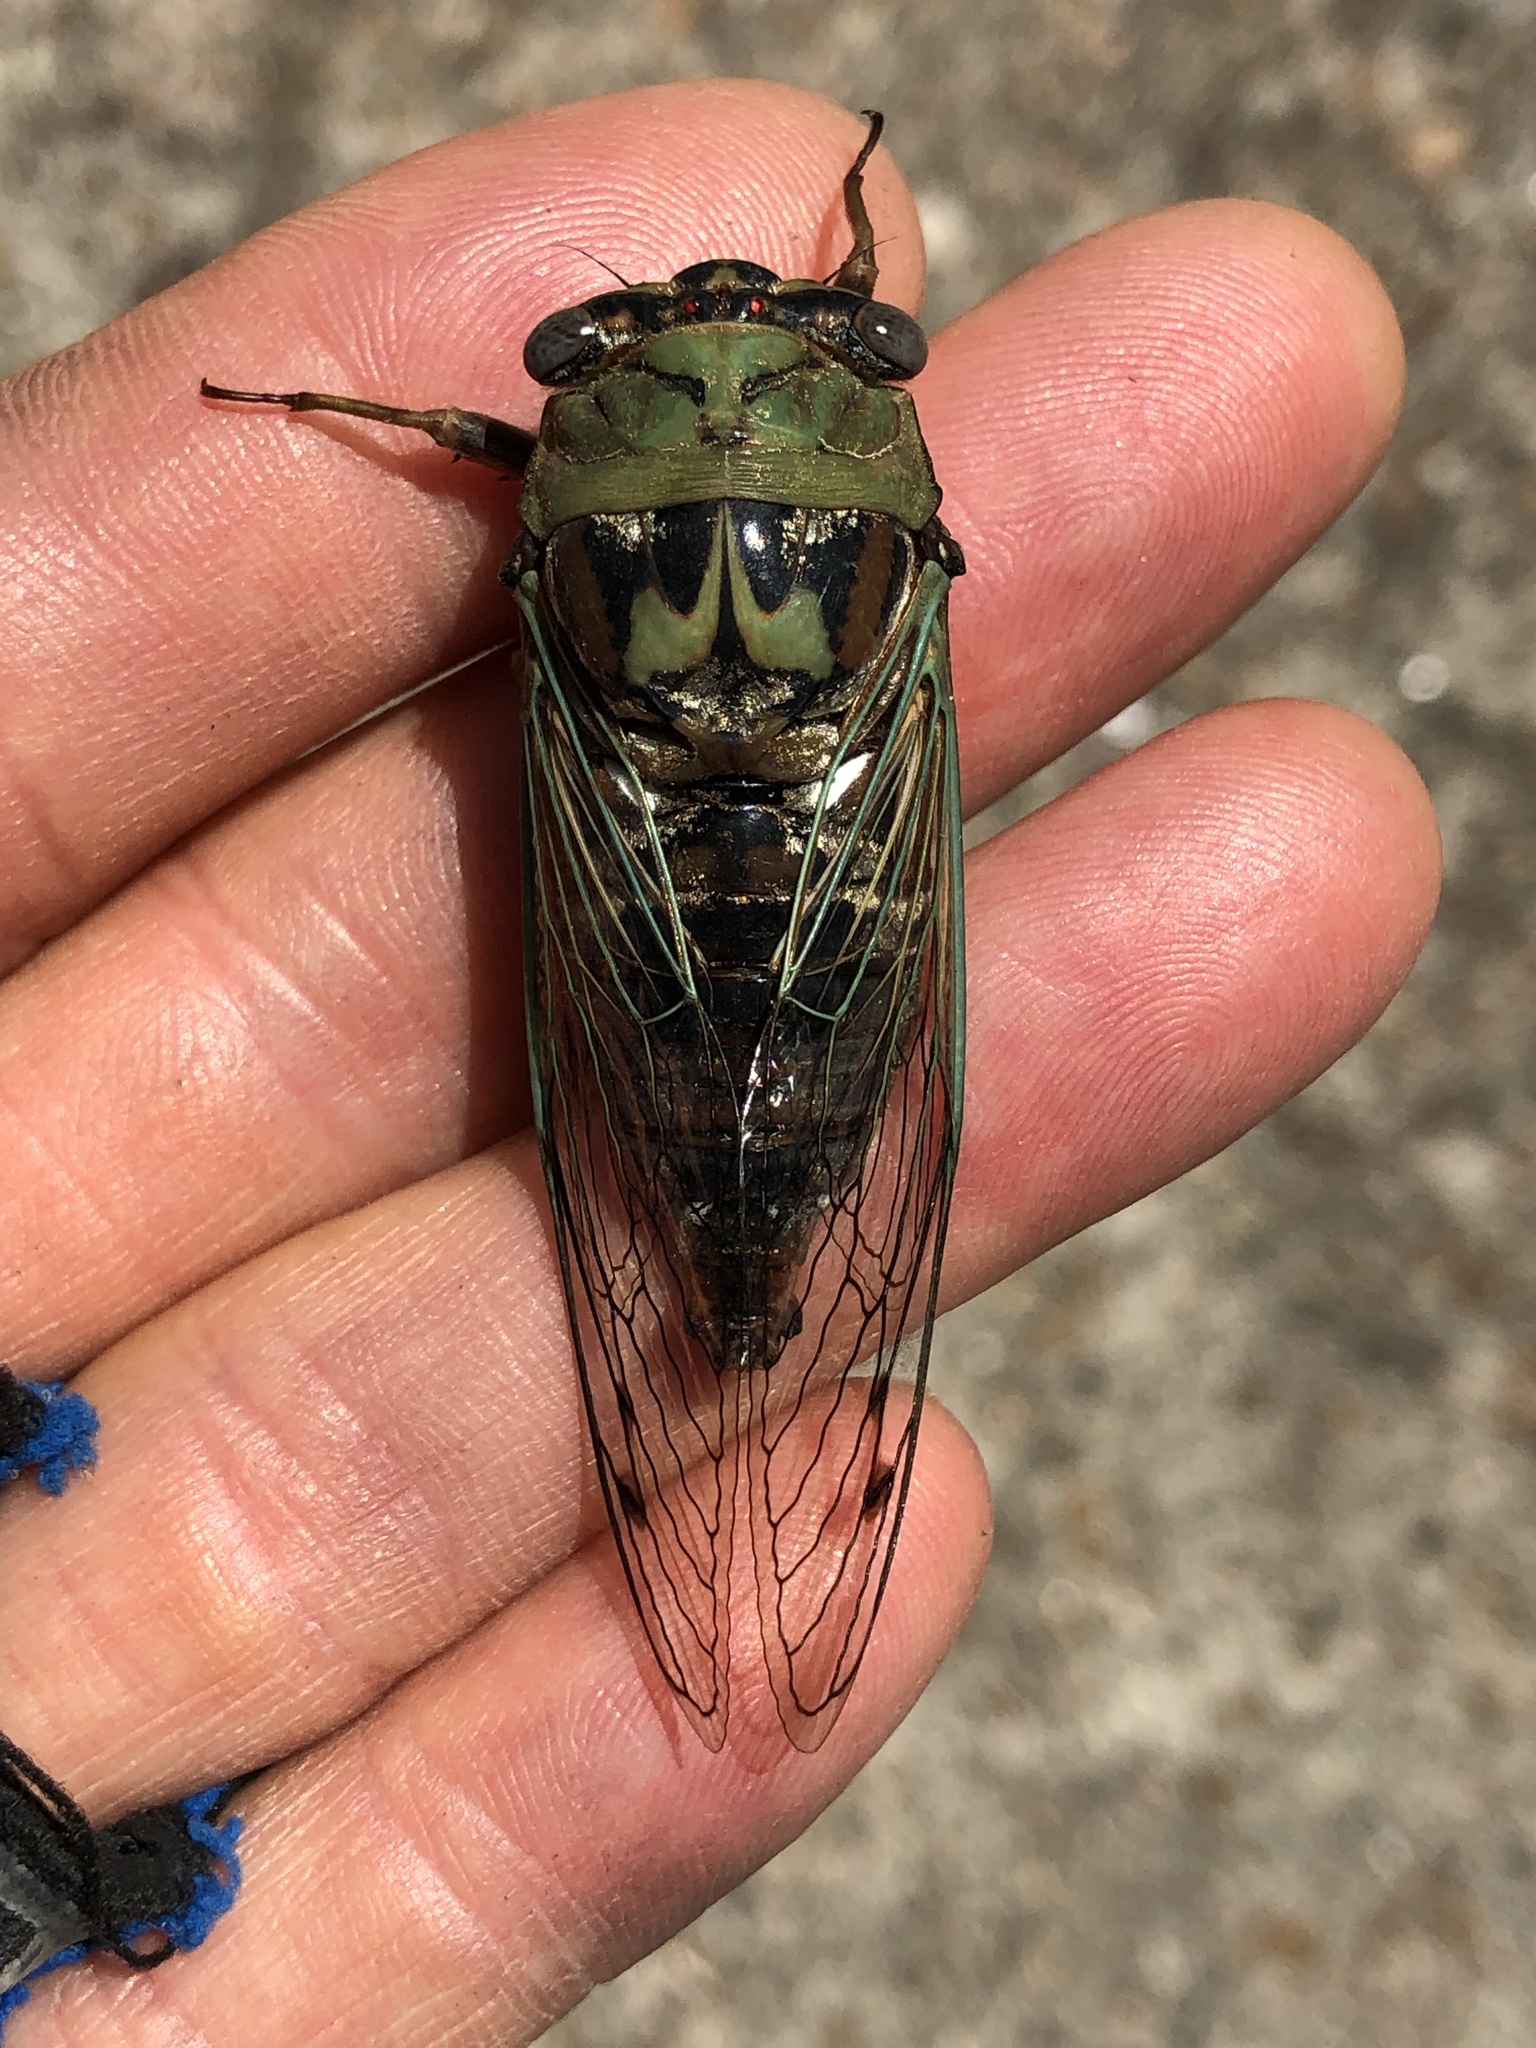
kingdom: Animalia
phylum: Arthropoda
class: Insecta
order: Hemiptera
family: Cicadidae
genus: Megatibicen
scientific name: Megatibicen resh
